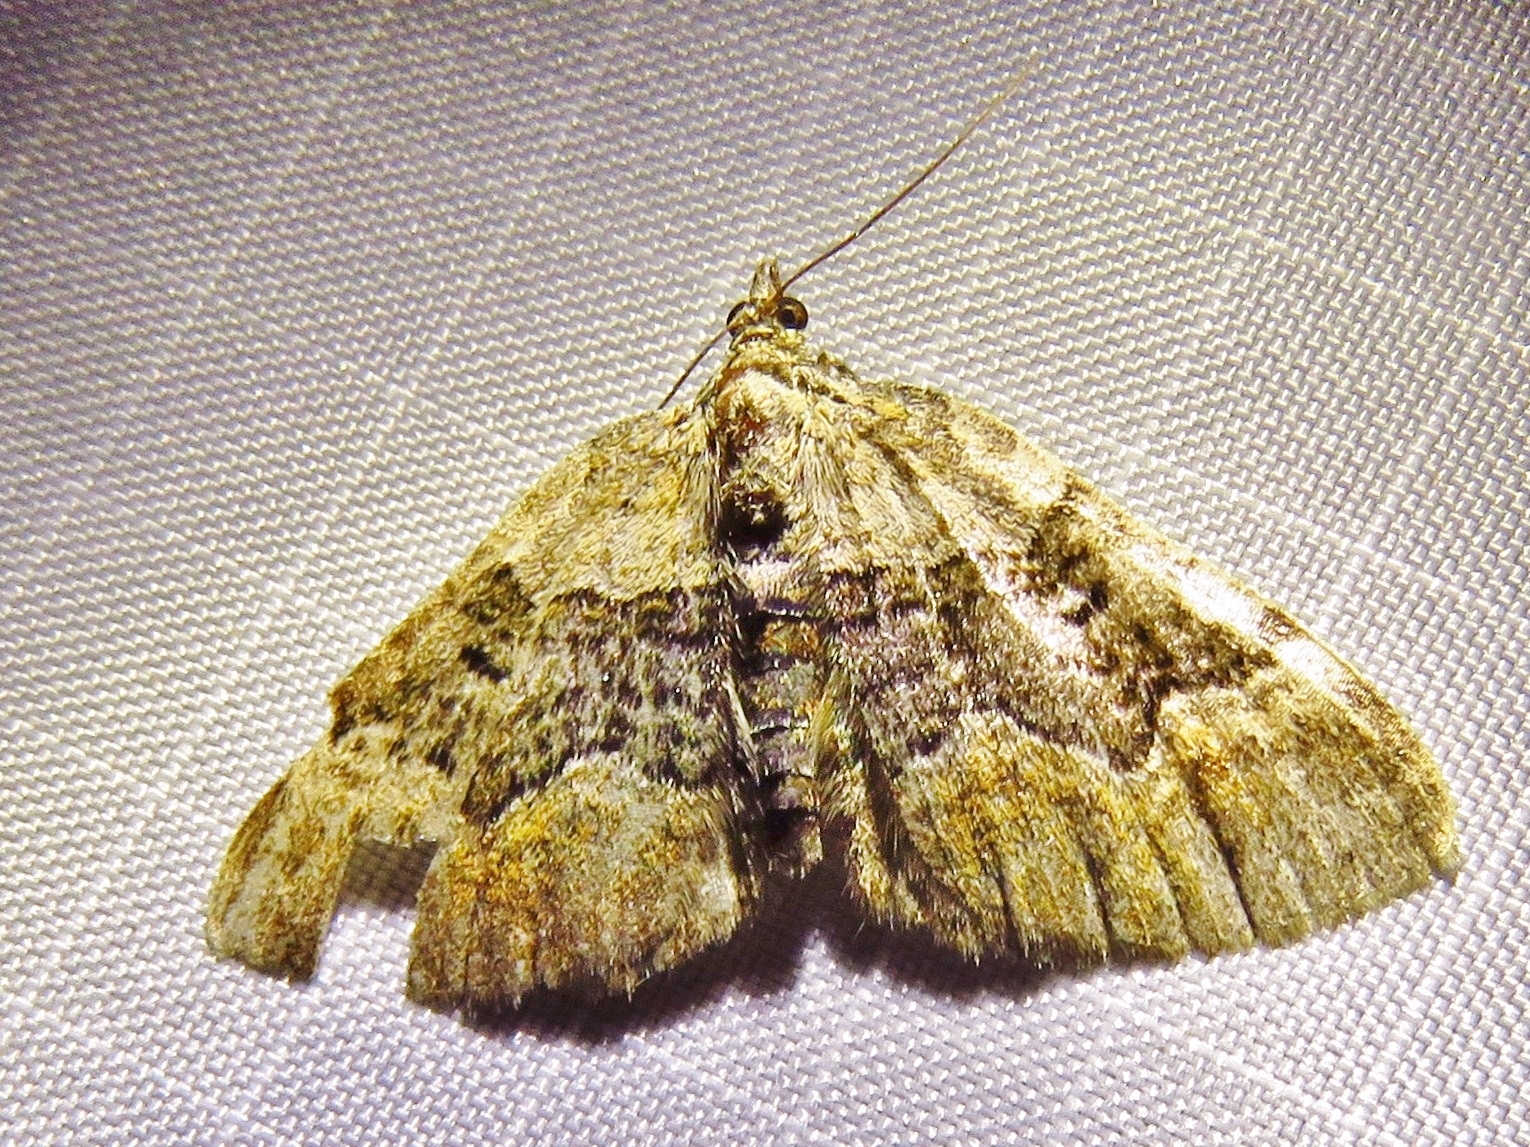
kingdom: Animalia
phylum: Arthropoda
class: Insecta
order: Lepidoptera
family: Geometridae
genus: Xanthorhoe
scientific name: Xanthorhoe quadrifasiata
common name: Large twin-spot carpet
